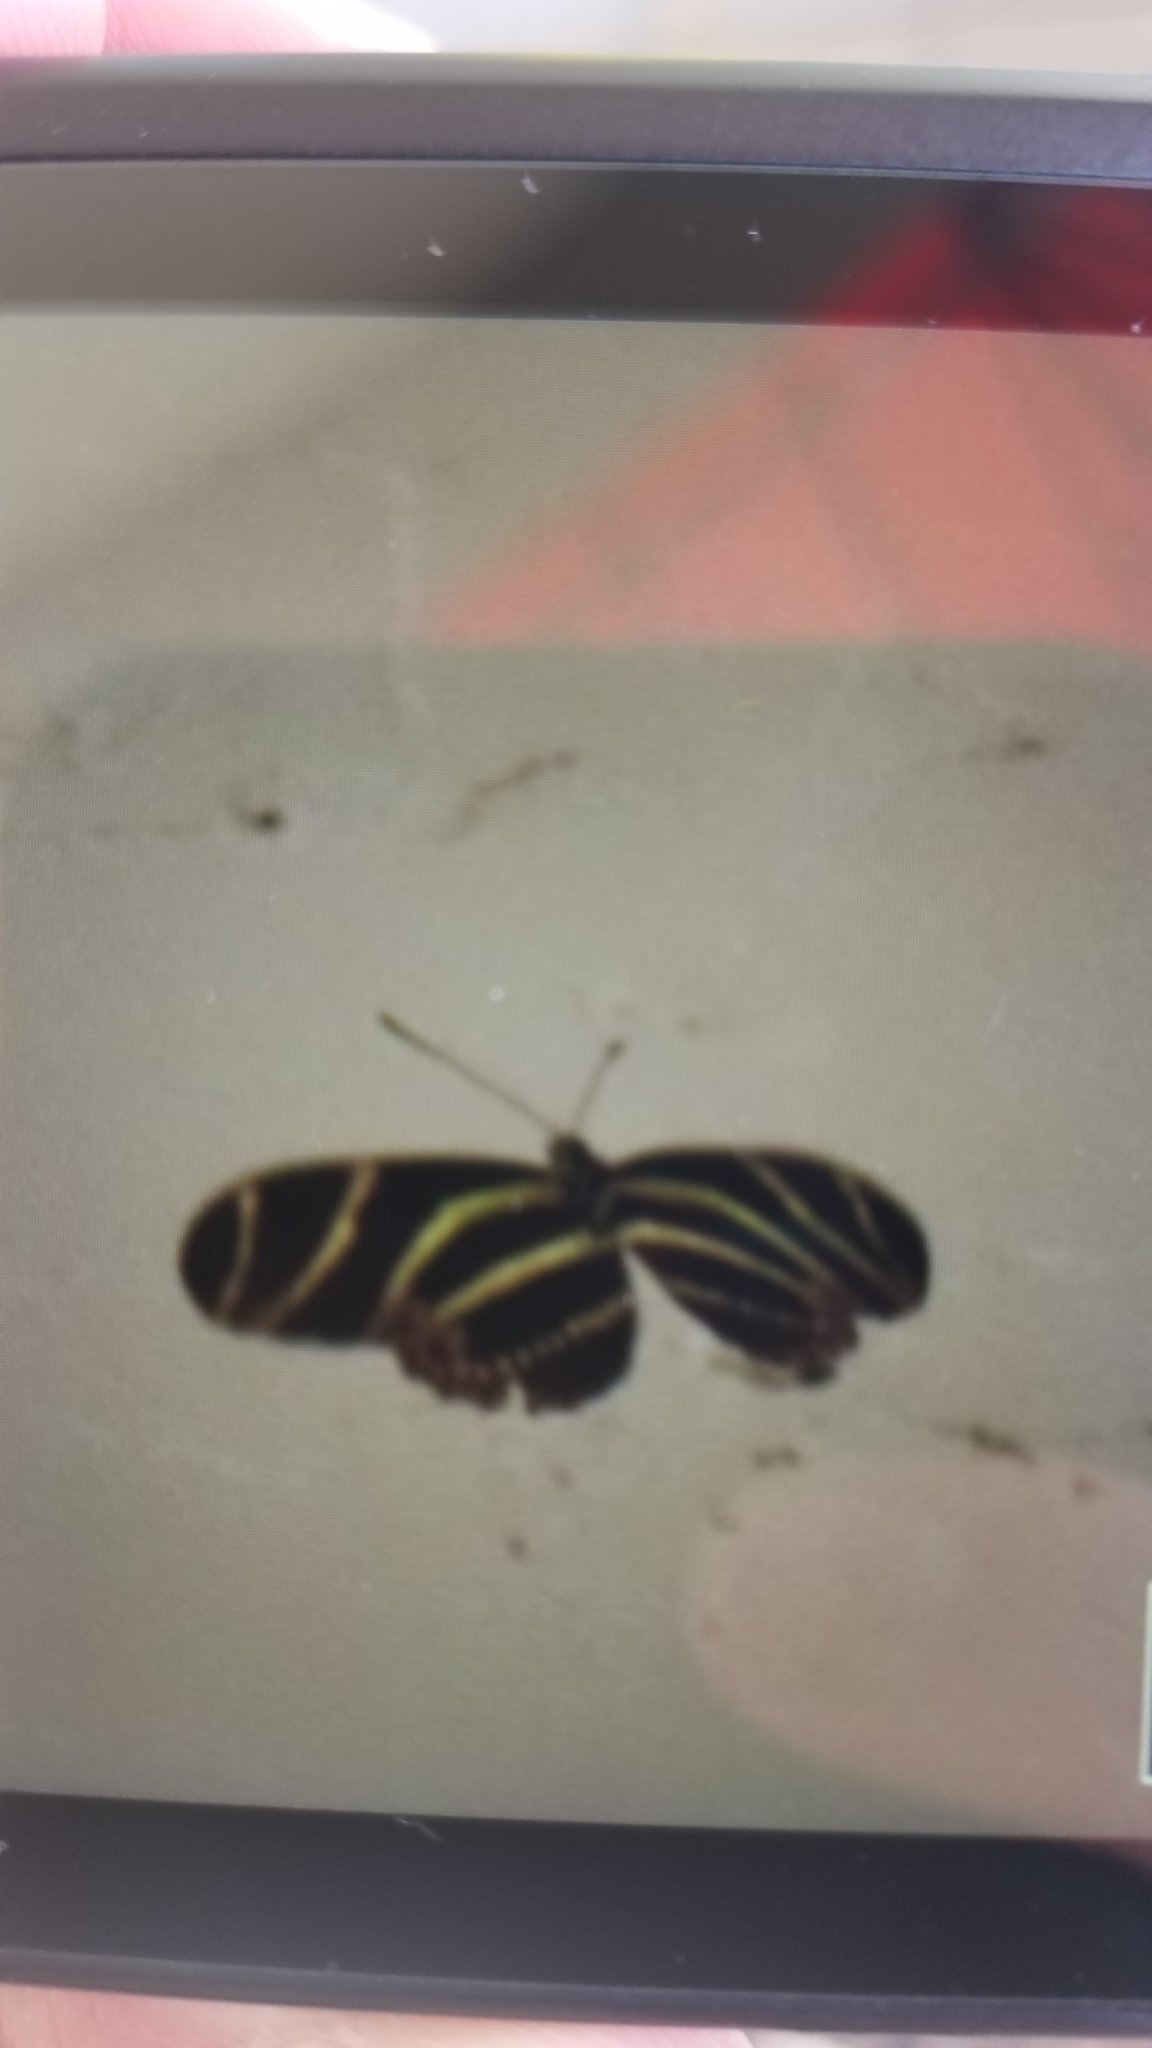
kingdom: Animalia
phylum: Arthropoda
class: Insecta
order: Lepidoptera
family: Nymphalidae
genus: Heliconius
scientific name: Heliconius charithonia
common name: Zebra long wing
